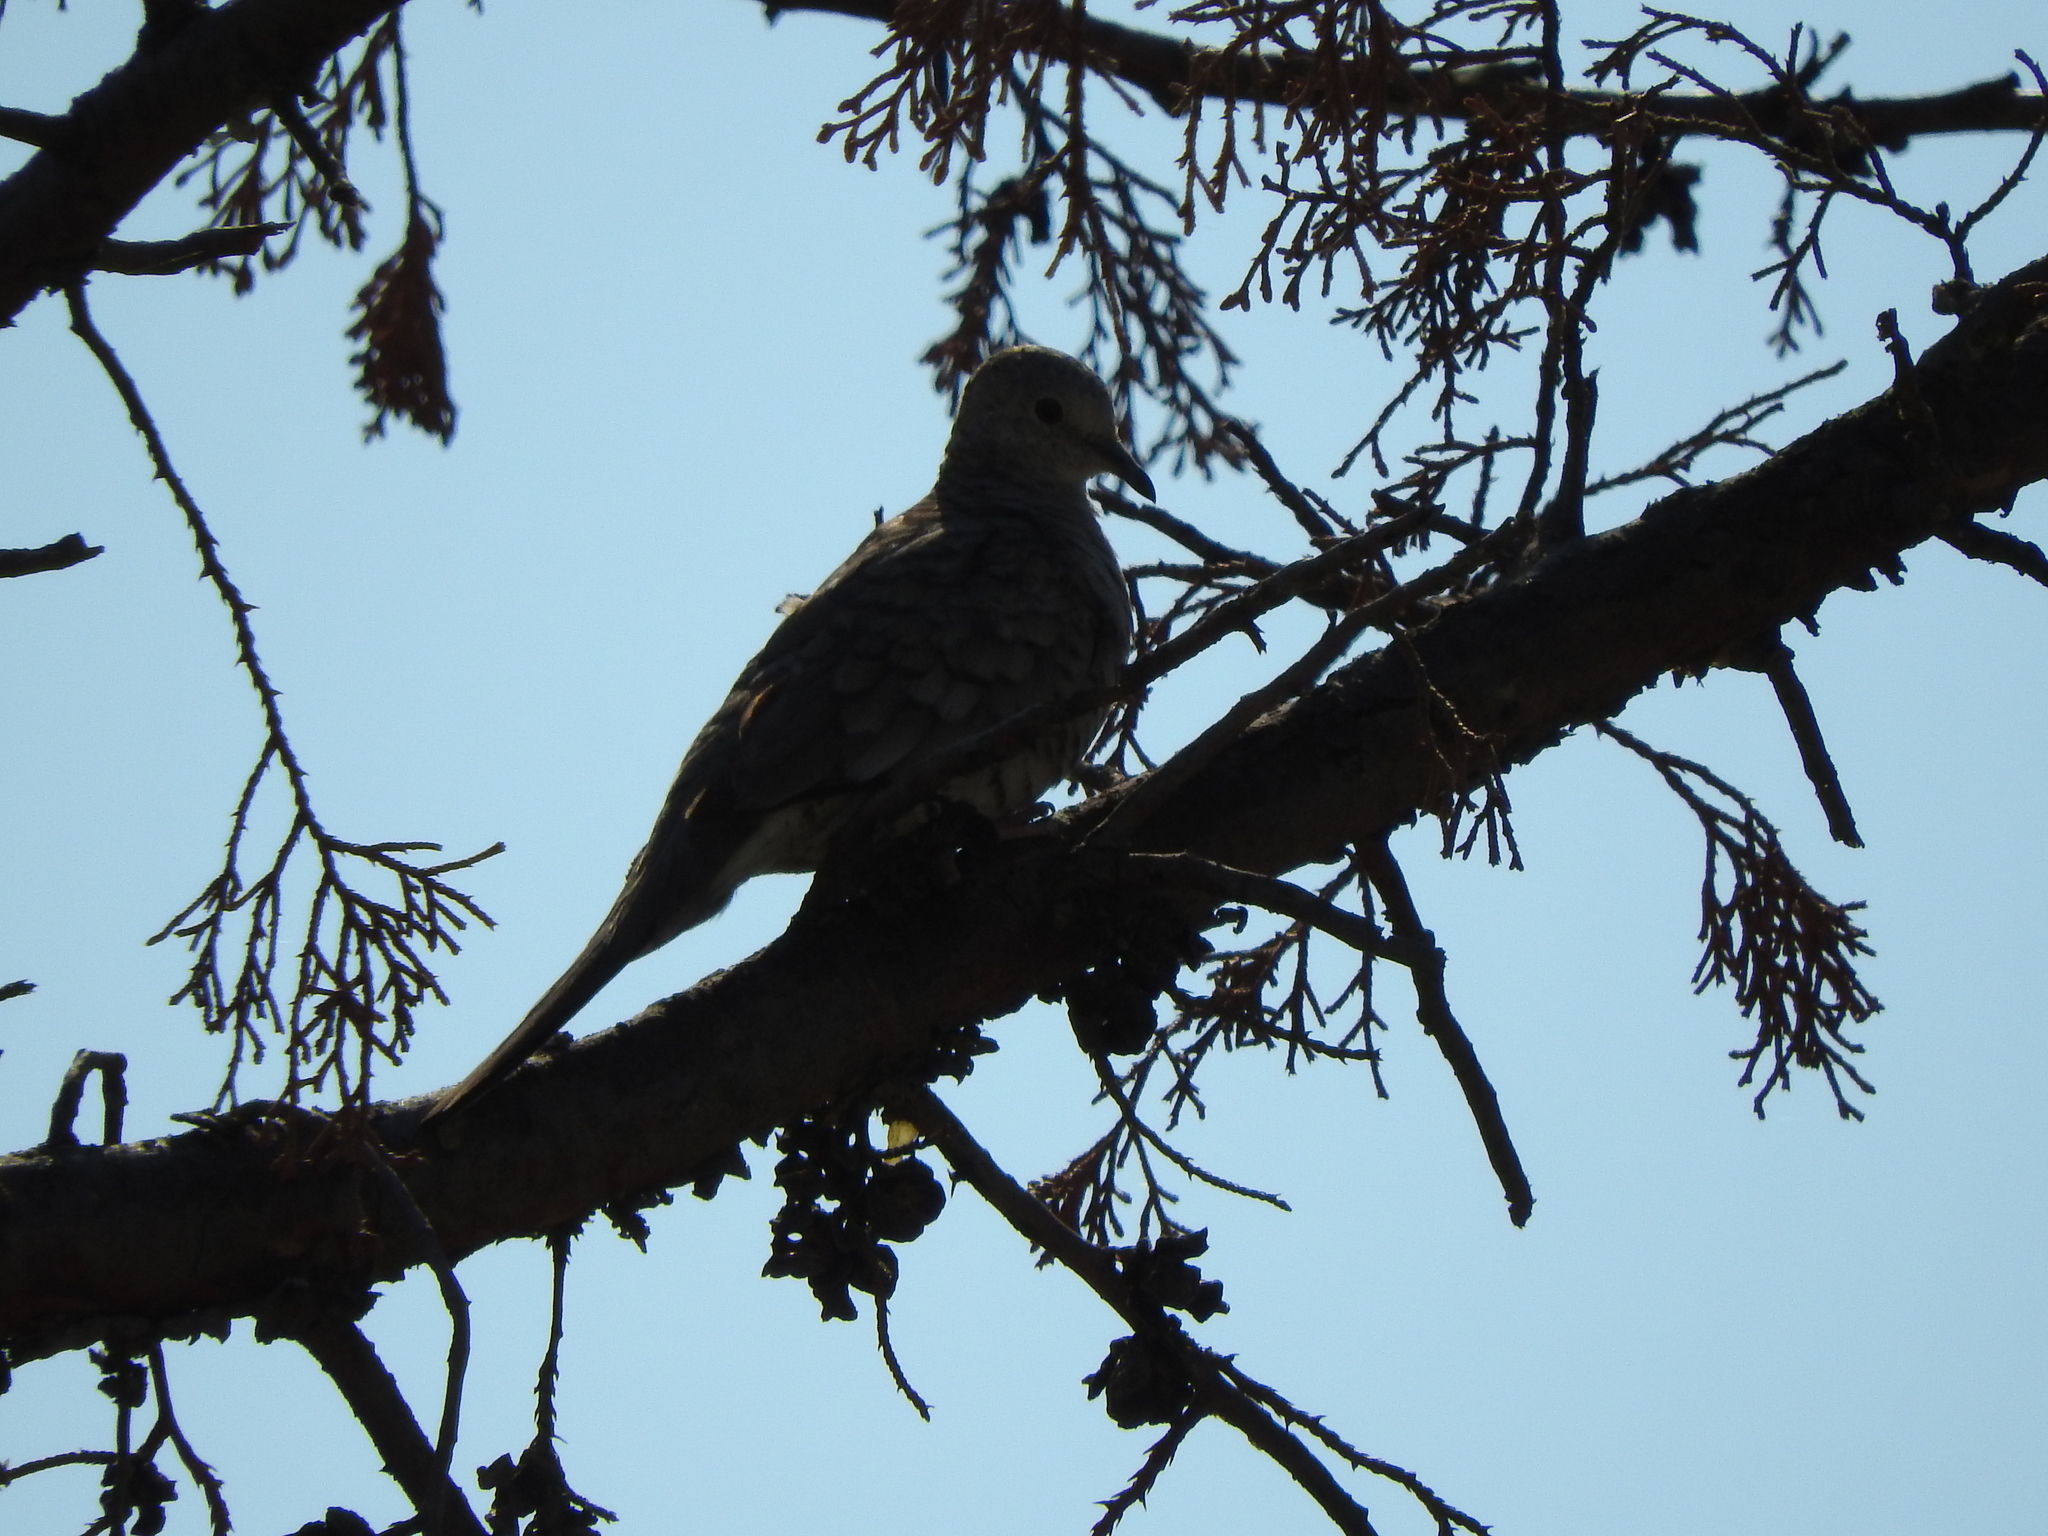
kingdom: Animalia
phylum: Chordata
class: Aves
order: Columbiformes
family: Columbidae
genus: Columbina
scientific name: Columbina inca
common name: Inca dove
